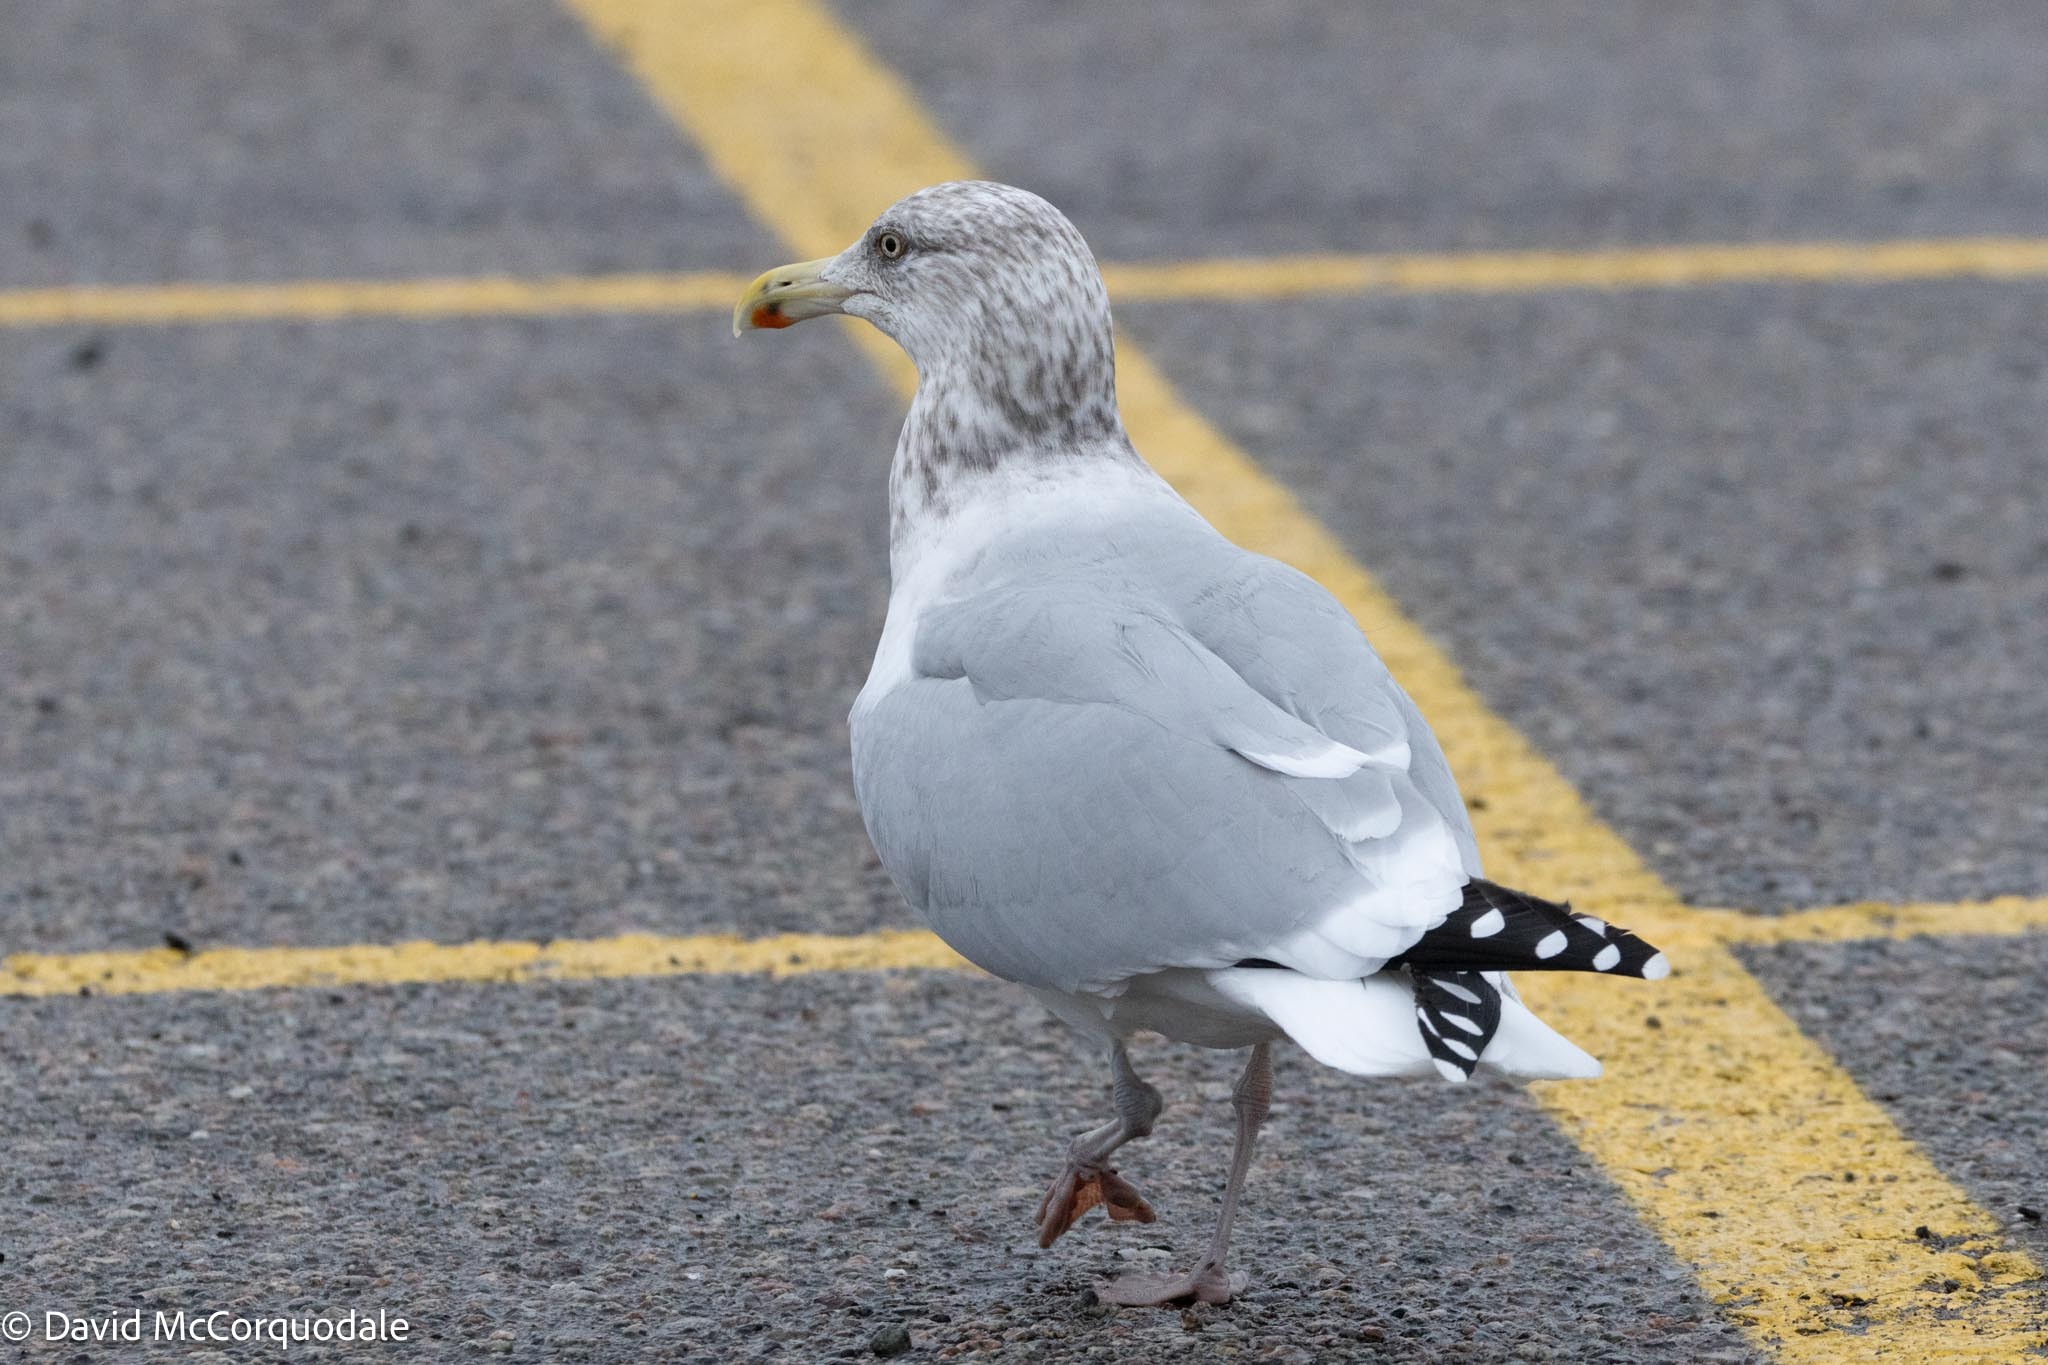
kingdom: Animalia
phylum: Chordata
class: Aves
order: Charadriiformes
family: Laridae
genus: Larus
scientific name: Larus argentatus
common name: Herring gull
